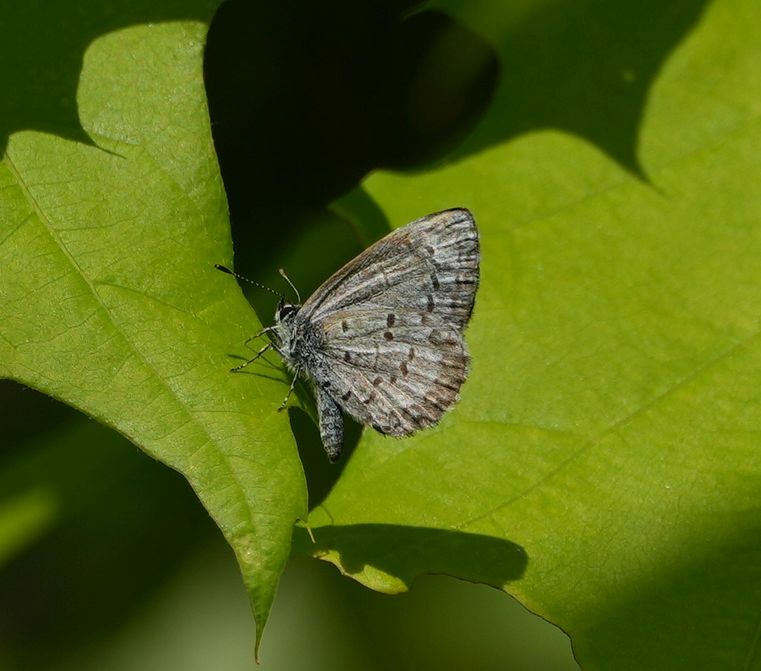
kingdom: Animalia
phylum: Arthropoda
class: Insecta
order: Lepidoptera
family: Lycaenidae
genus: Celastrina
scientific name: Celastrina lucia
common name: Lucia azure
